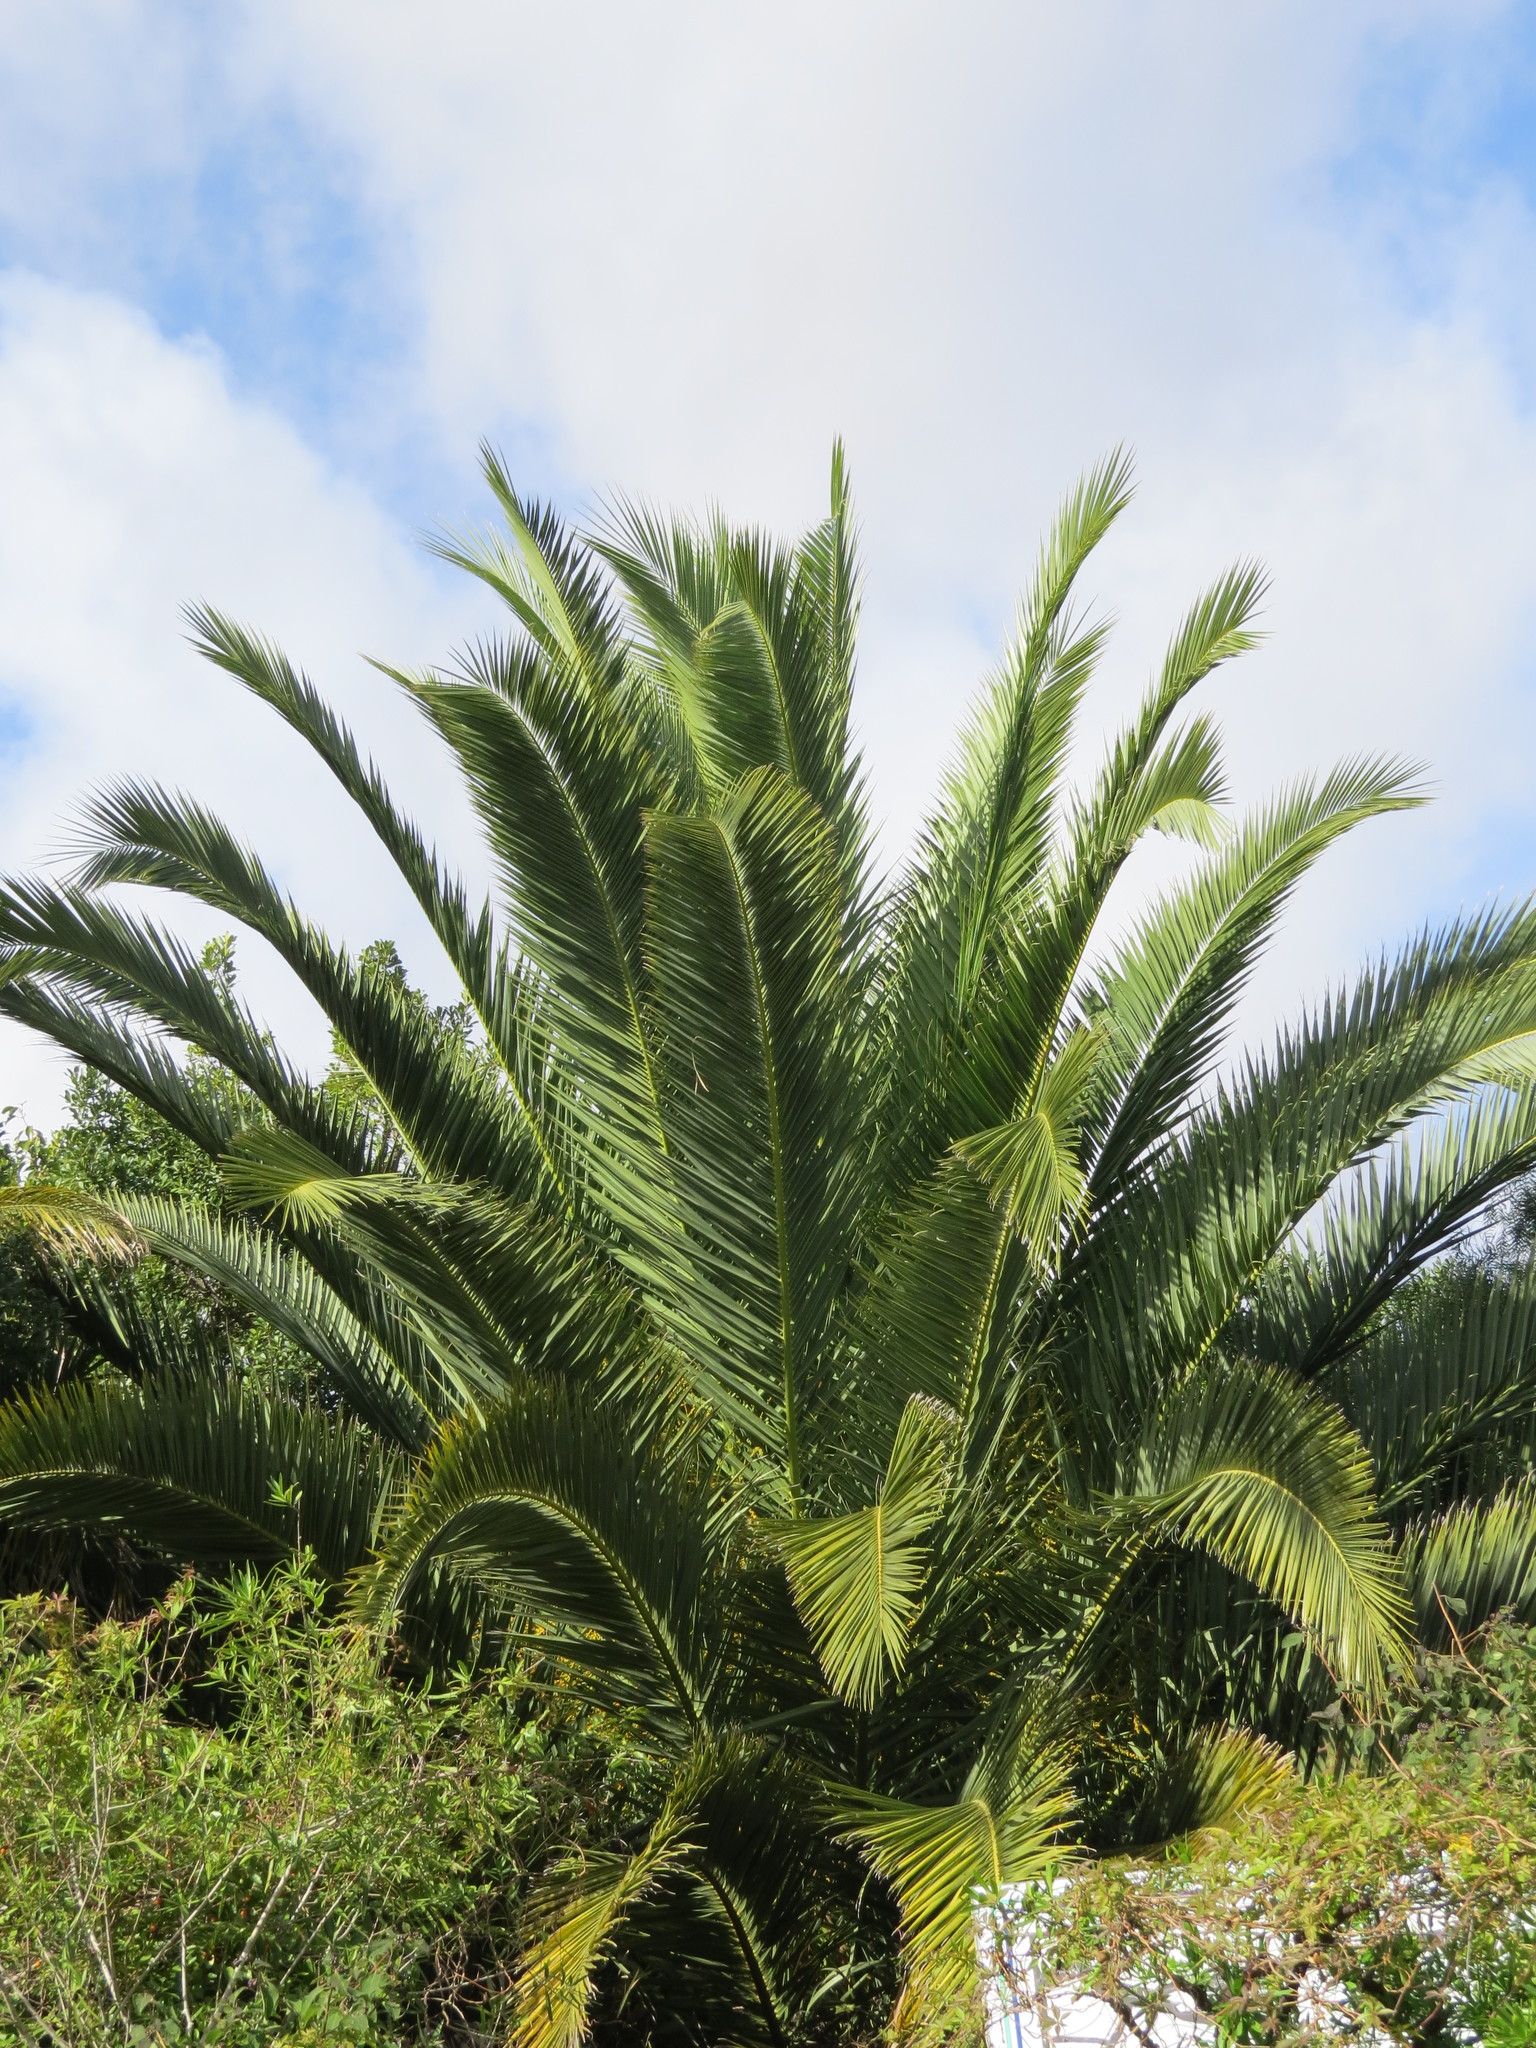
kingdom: Plantae
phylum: Tracheophyta
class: Liliopsida
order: Arecales
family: Arecaceae
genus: Phoenix
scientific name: Phoenix canariensis
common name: Canary island date palm
